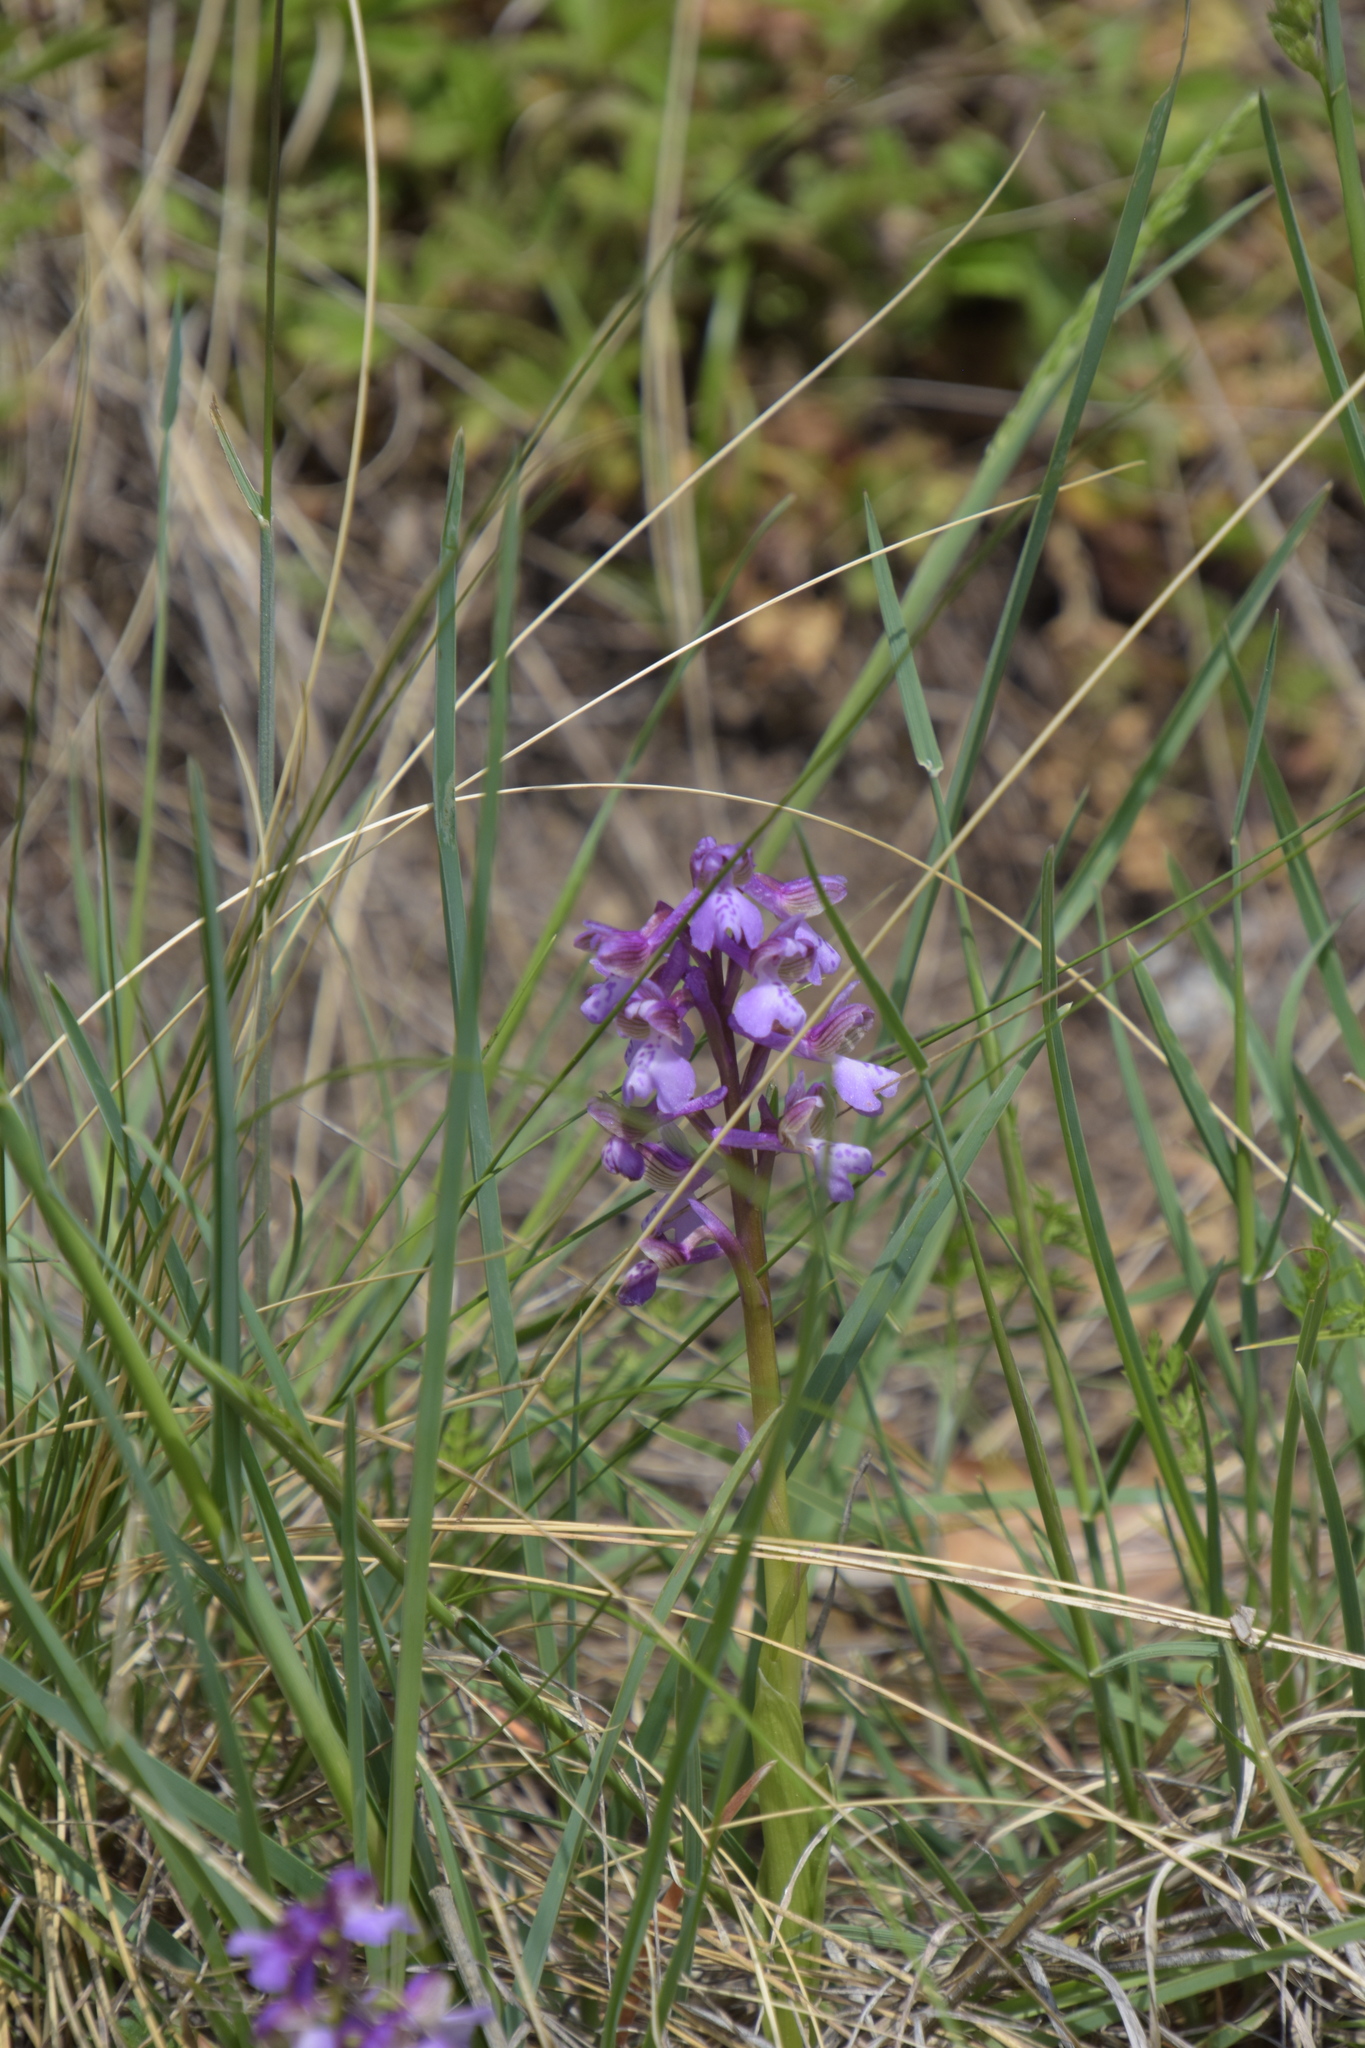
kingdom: Plantae
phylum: Tracheophyta
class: Liliopsida
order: Asparagales
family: Orchidaceae
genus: Anacamptis
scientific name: Anacamptis morio
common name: Green-winged orchid
